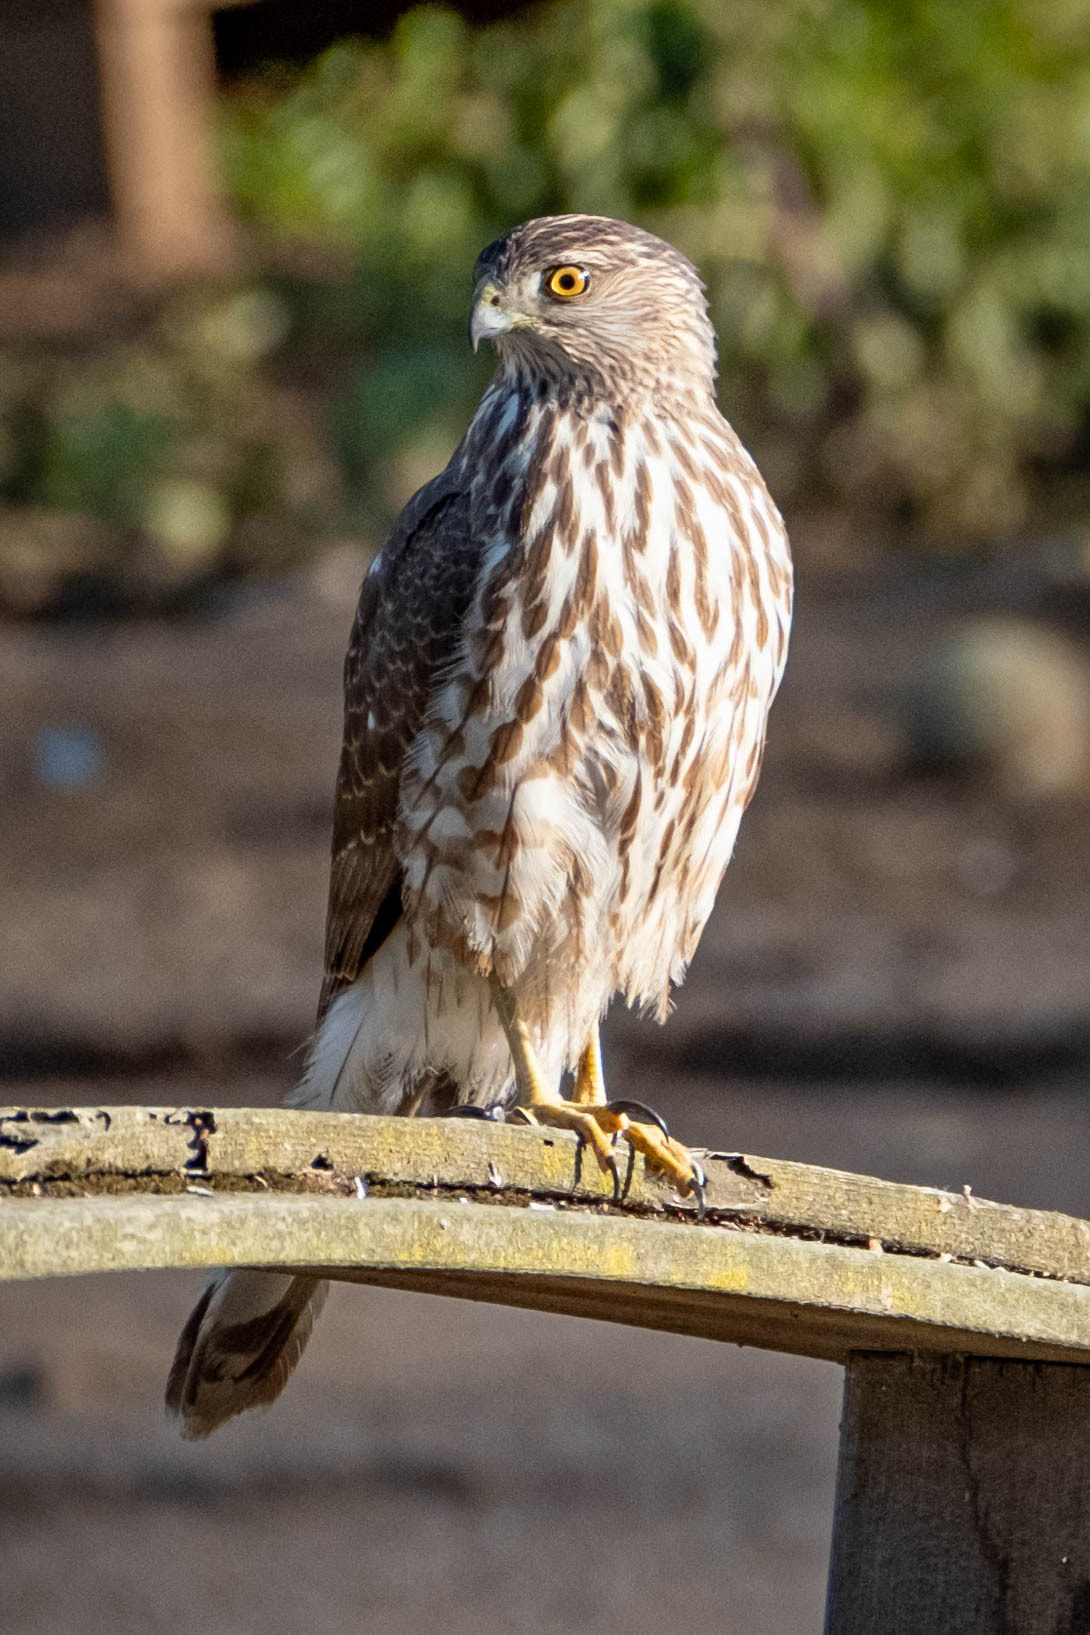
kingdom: Animalia
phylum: Chordata
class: Aves
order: Accipitriformes
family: Accipitridae
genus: Accipiter
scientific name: Accipiter cooperii
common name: Cooper's hawk
